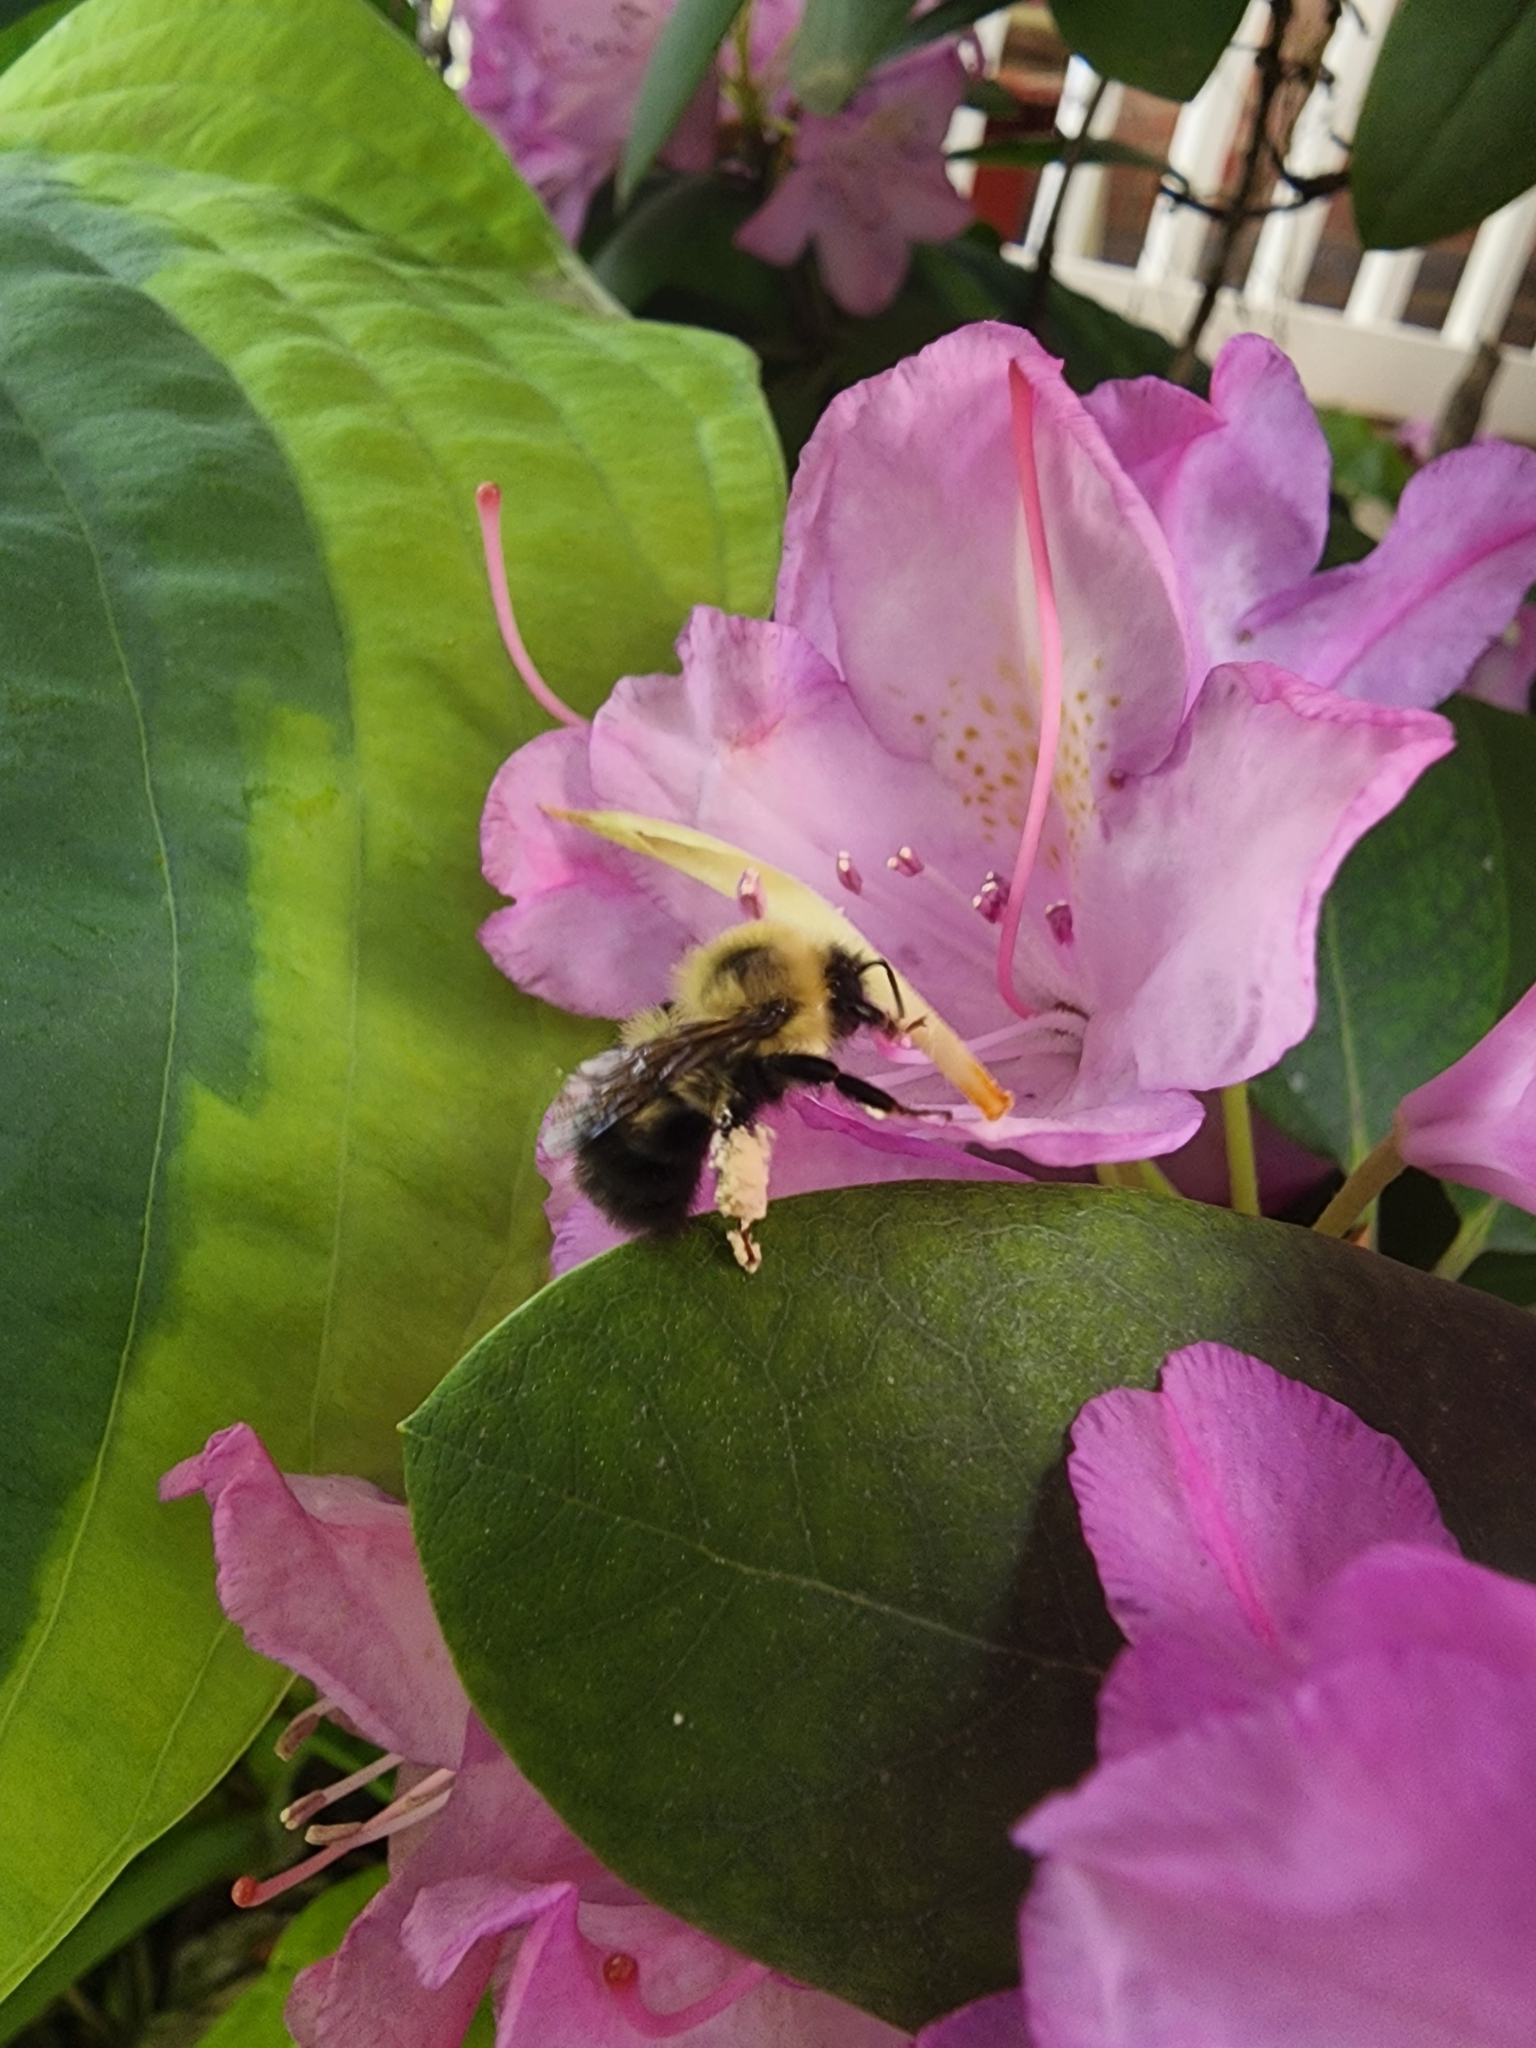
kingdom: Animalia
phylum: Arthropoda
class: Insecta
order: Hymenoptera
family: Apidae
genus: Bombus
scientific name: Bombus bimaculatus
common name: Two-spotted bumble bee
